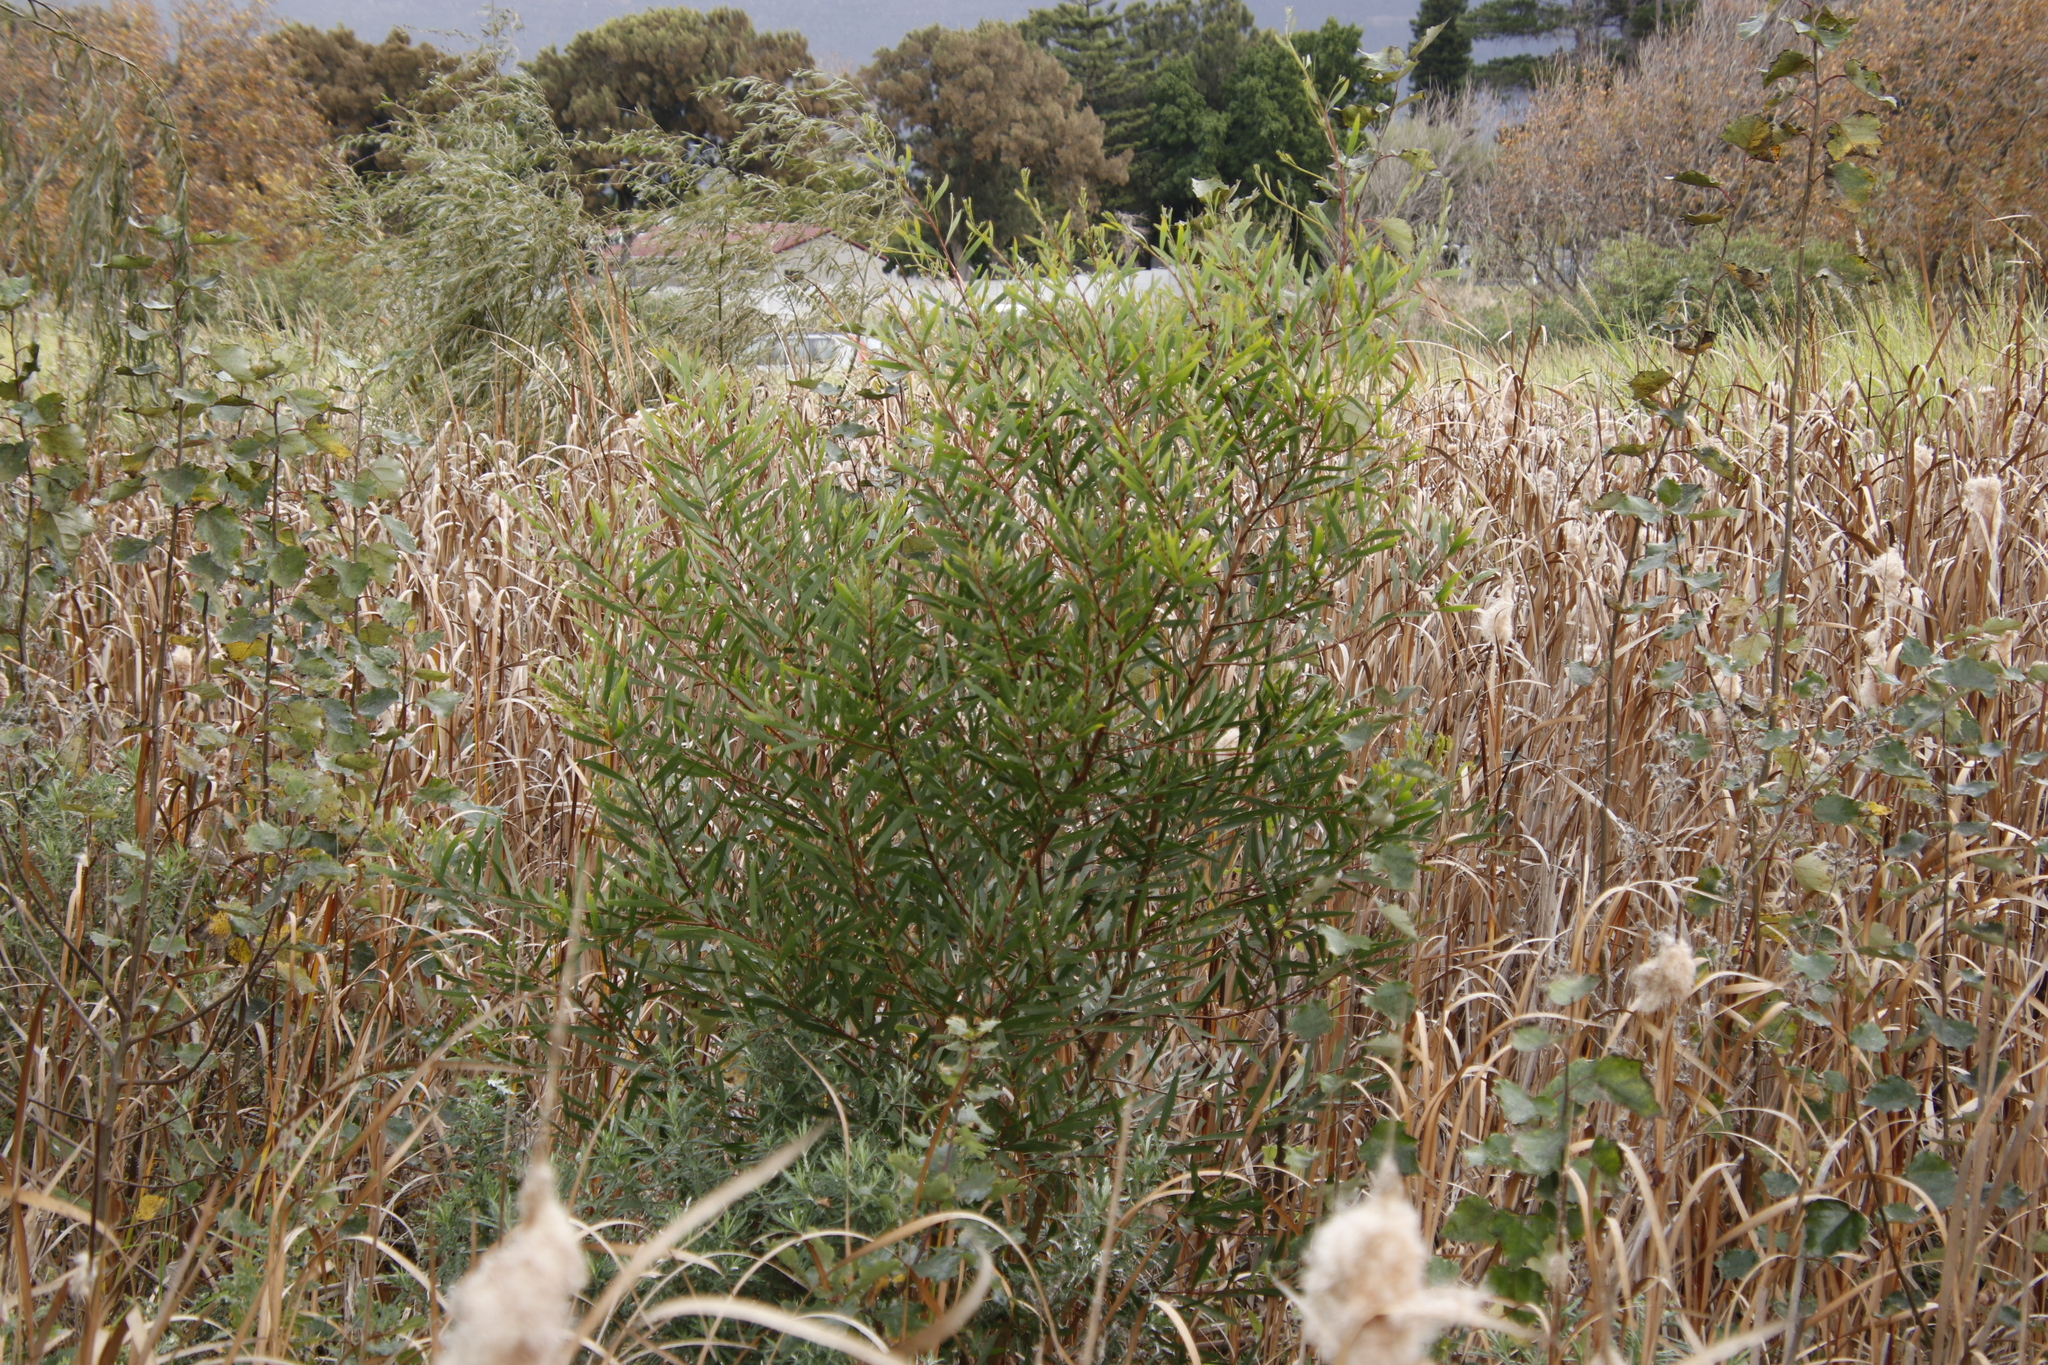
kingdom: Plantae
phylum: Tracheophyta
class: Magnoliopsida
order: Fabales
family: Fabaceae
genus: Acacia
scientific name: Acacia longifolia
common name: Sydney golden wattle
